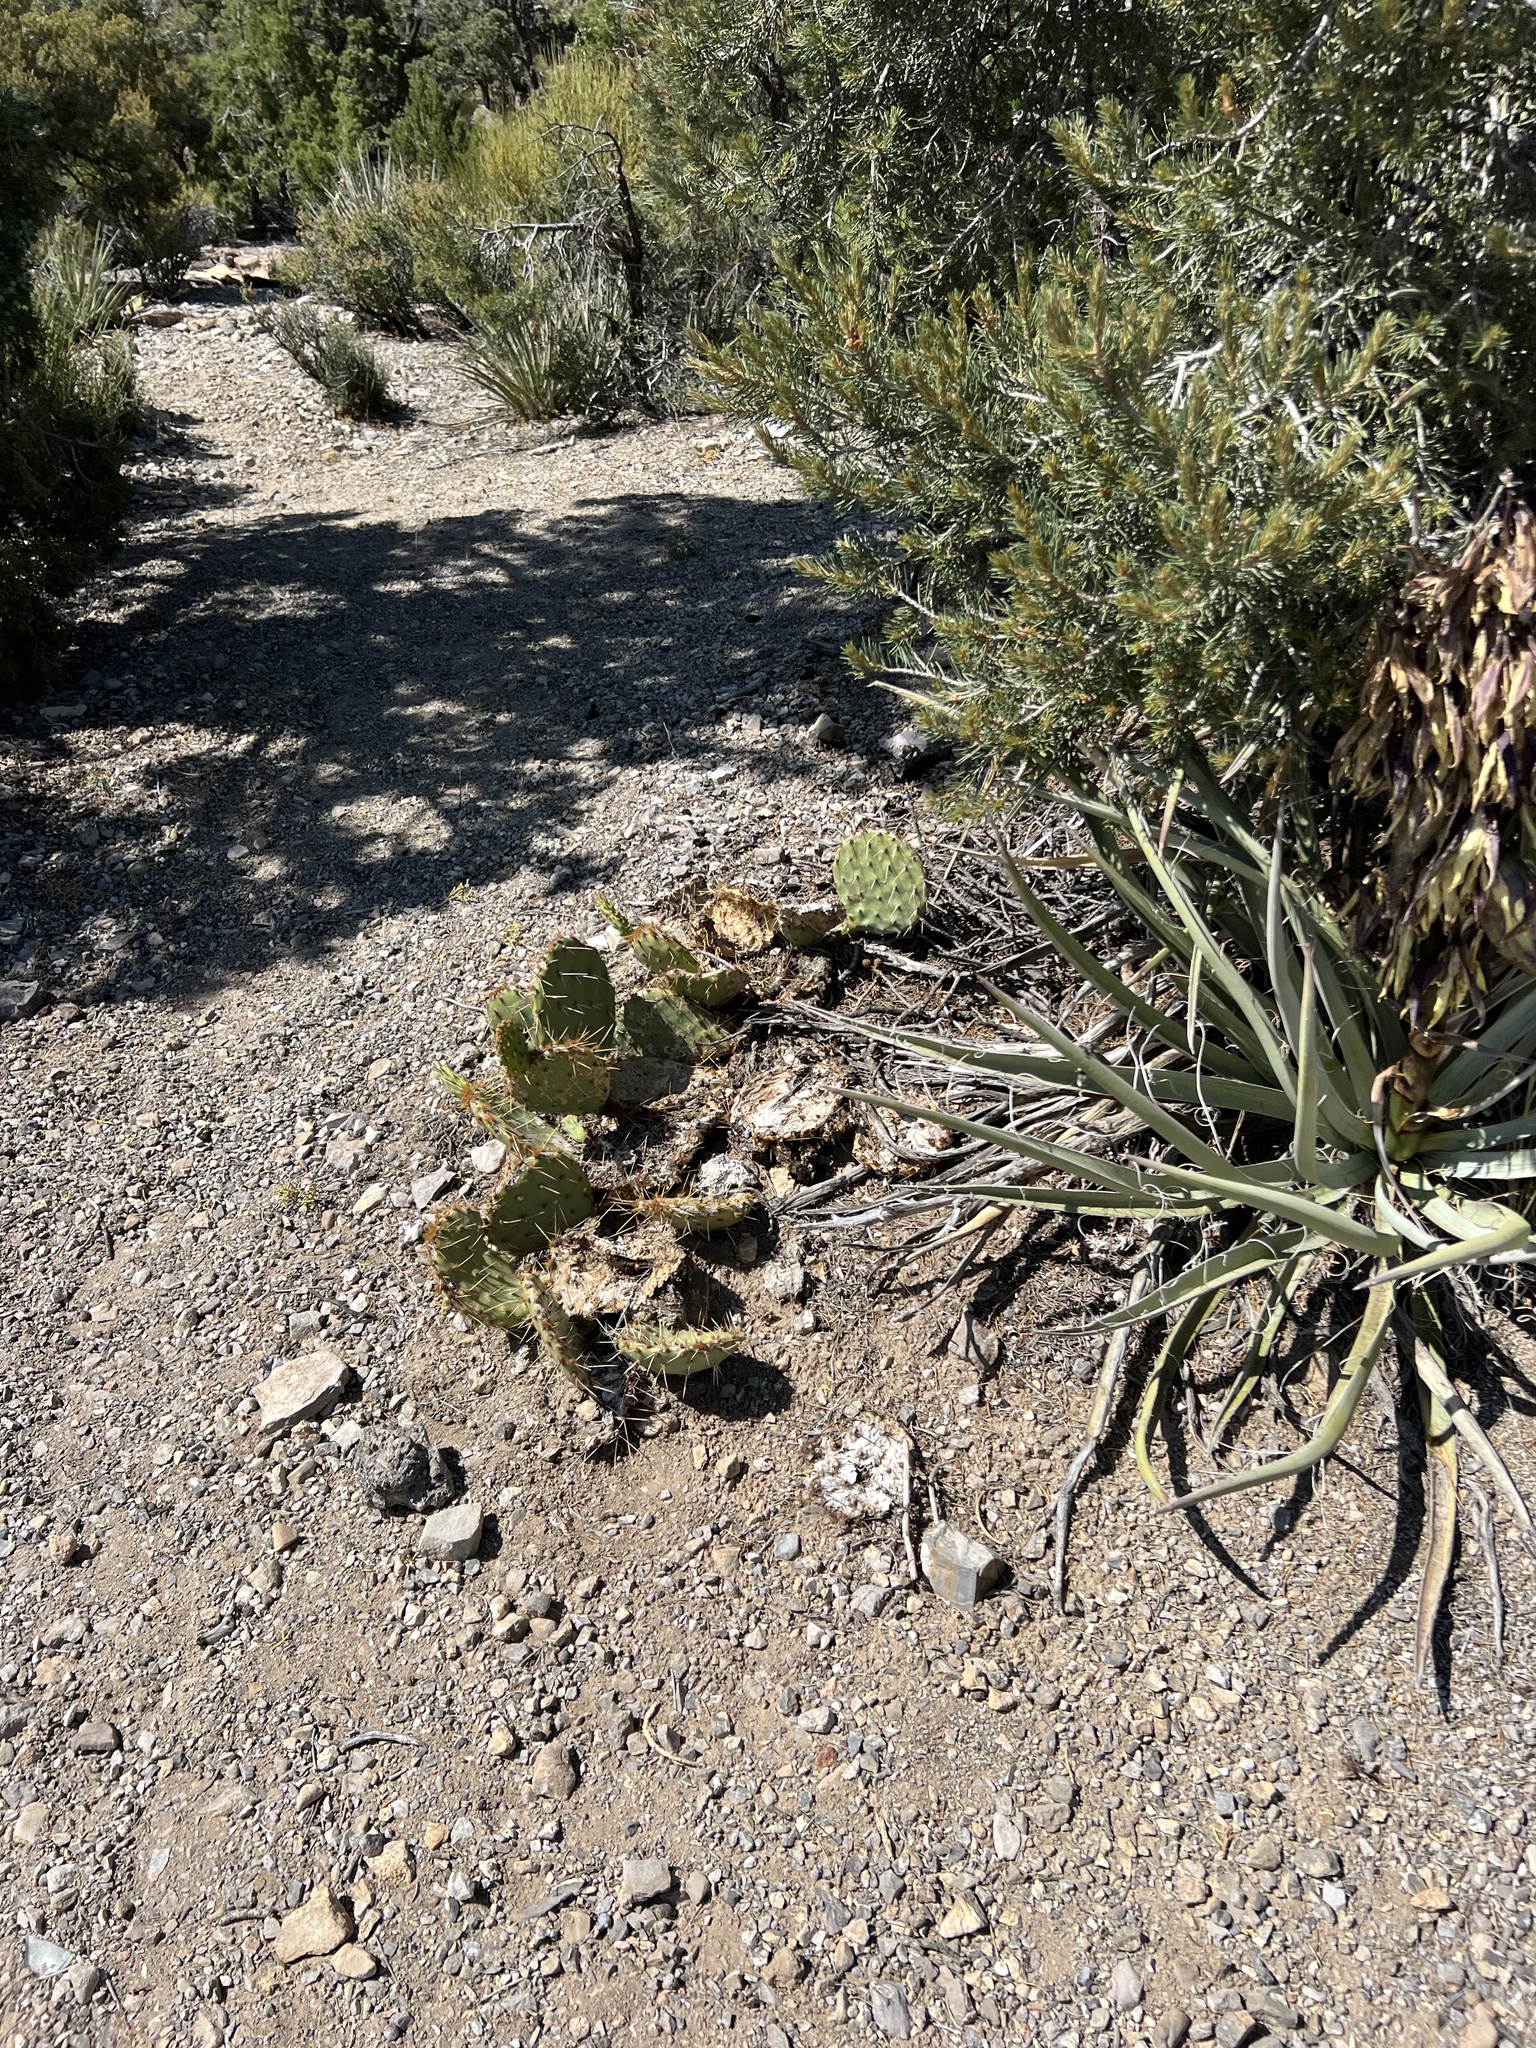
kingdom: Plantae
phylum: Tracheophyta
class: Magnoliopsida
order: Caryophyllales
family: Cactaceae
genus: Opuntia
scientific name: Opuntia phaeacantha
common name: New mexico prickly-pear
